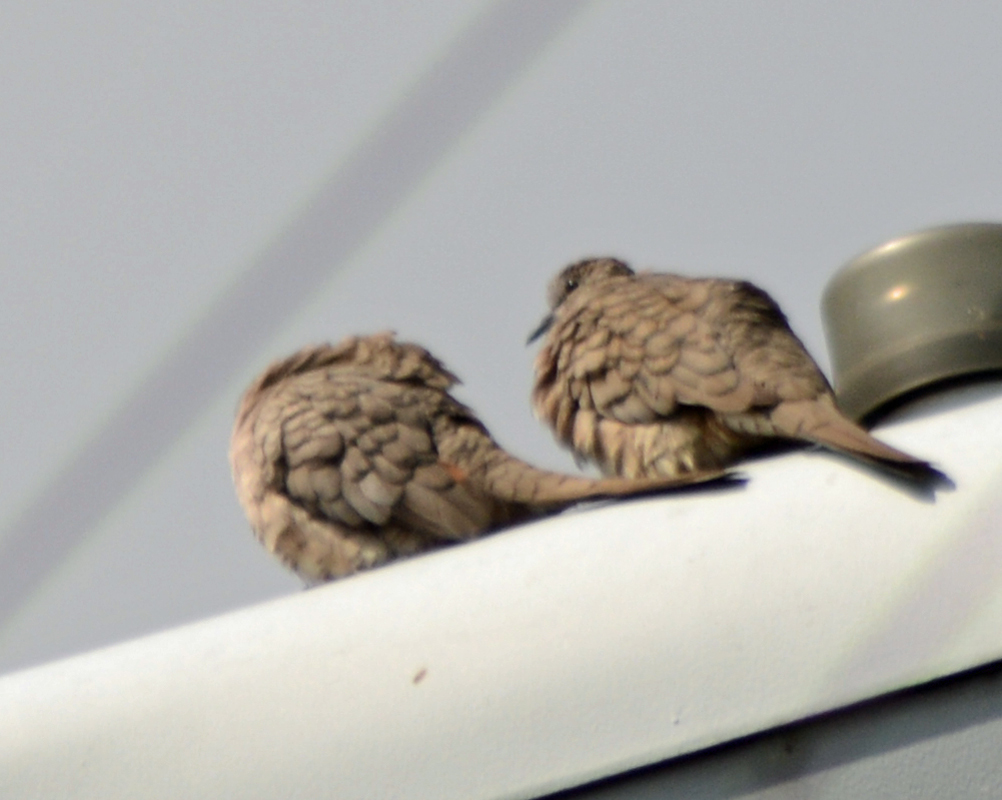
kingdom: Animalia
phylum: Chordata
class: Aves
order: Columbiformes
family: Columbidae
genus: Columbina
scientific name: Columbina inca
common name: Inca dove
